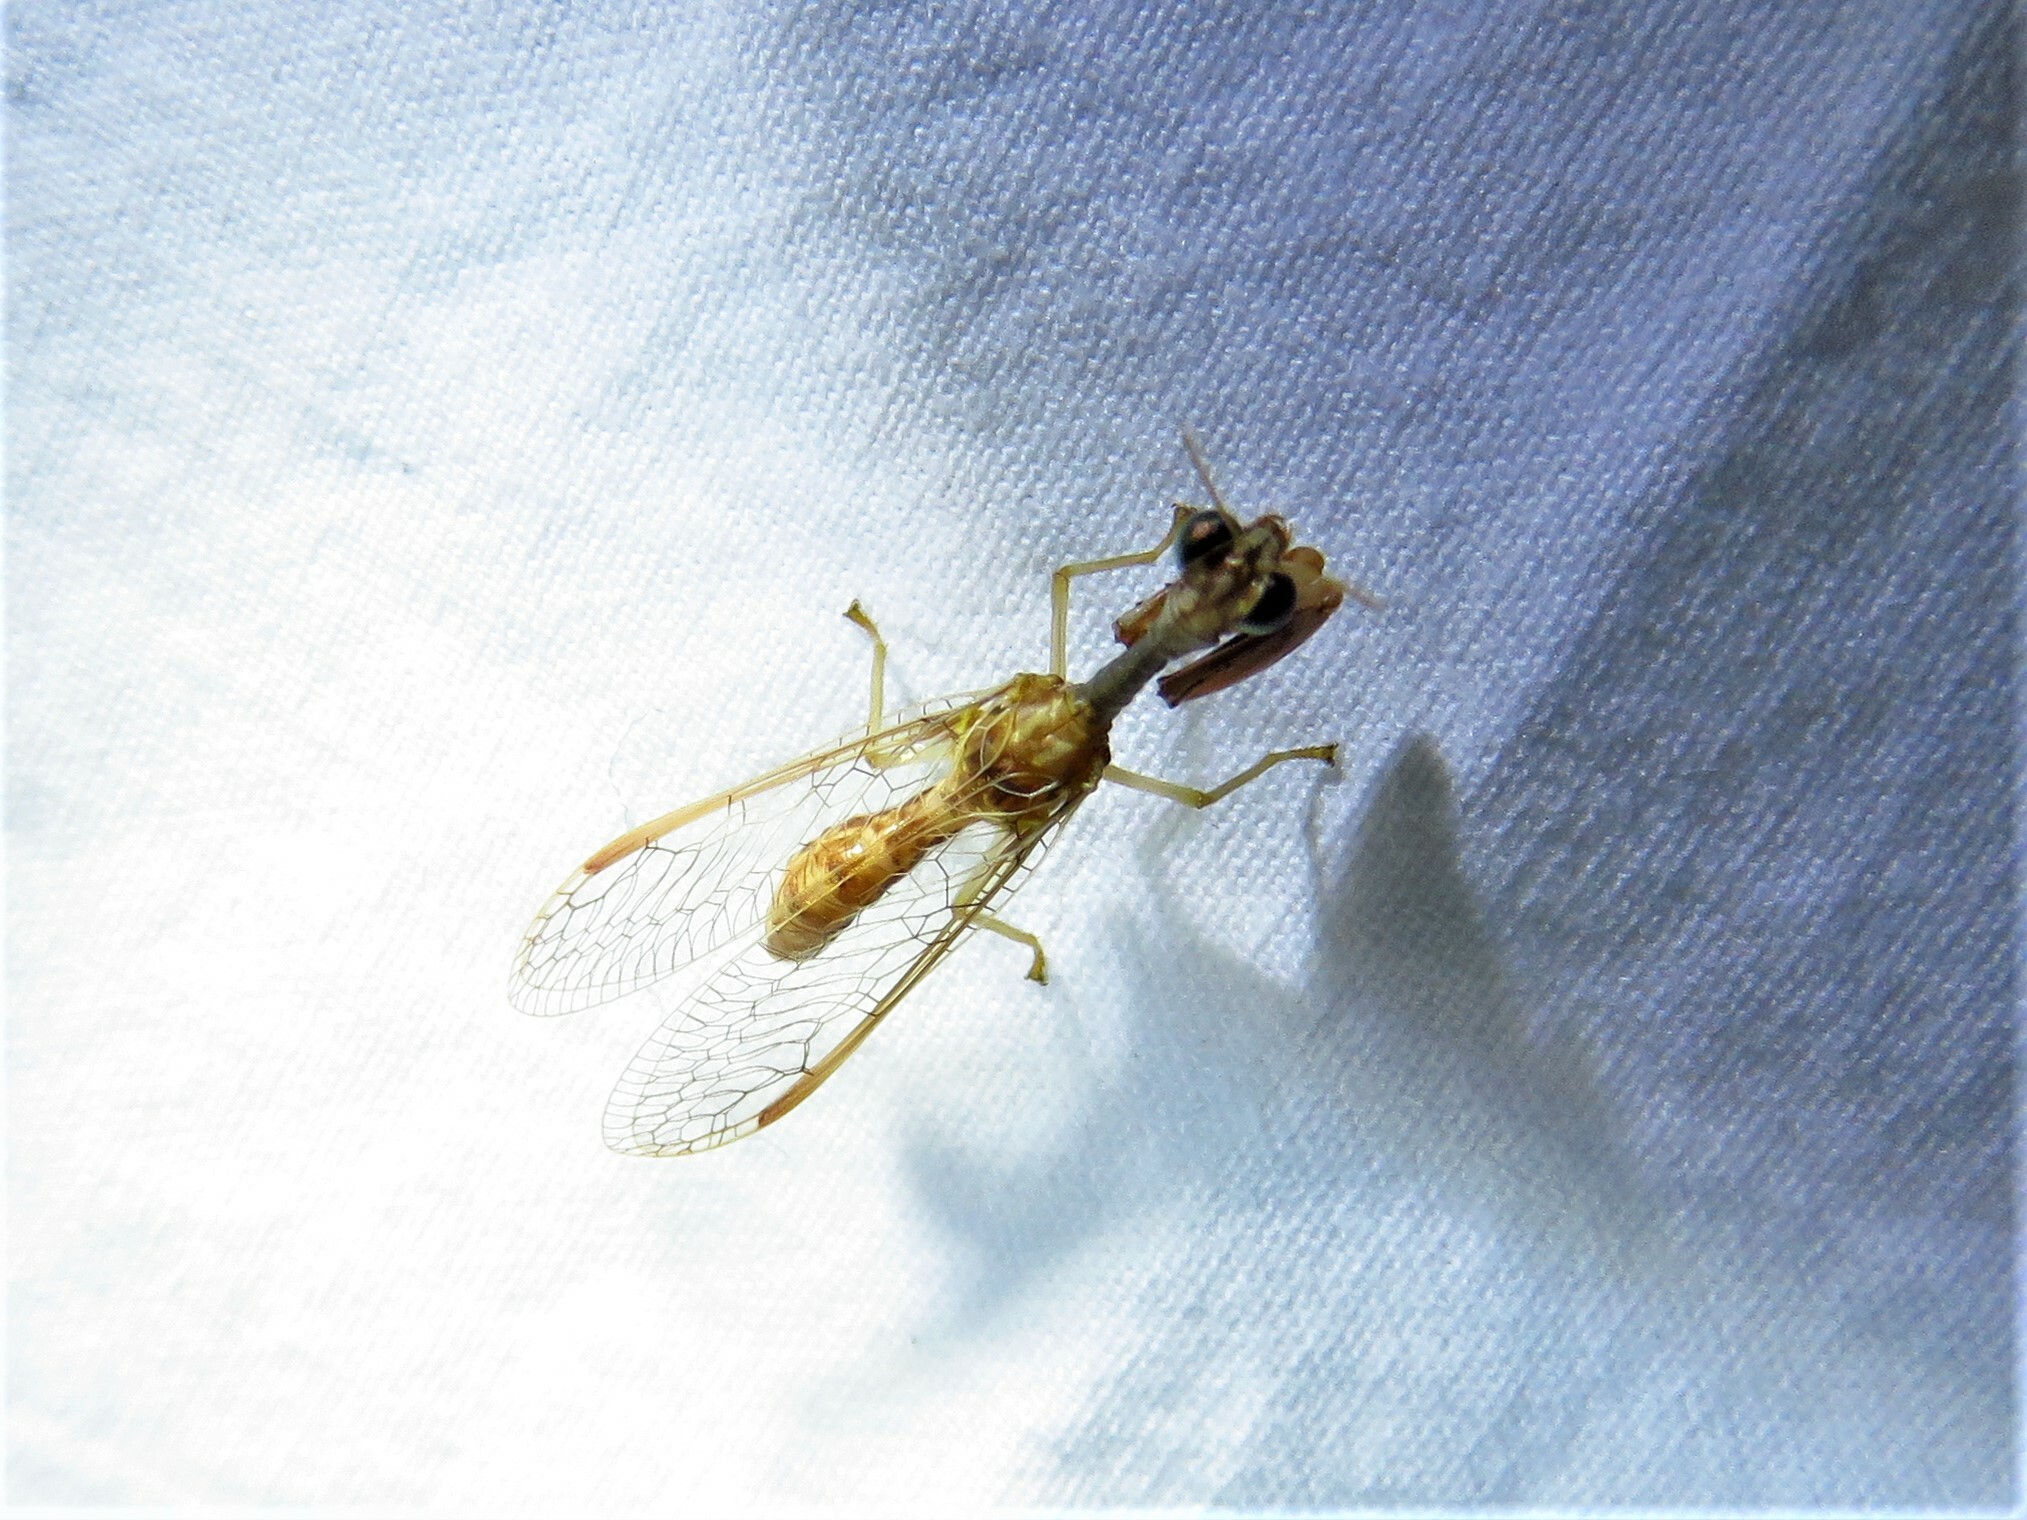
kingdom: Animalia
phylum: Arthropoda
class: Insecta
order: Neuroptera
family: Mantispidae
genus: Dicromantispa
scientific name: Dicromantispa sayi
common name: Say's mantidfly
